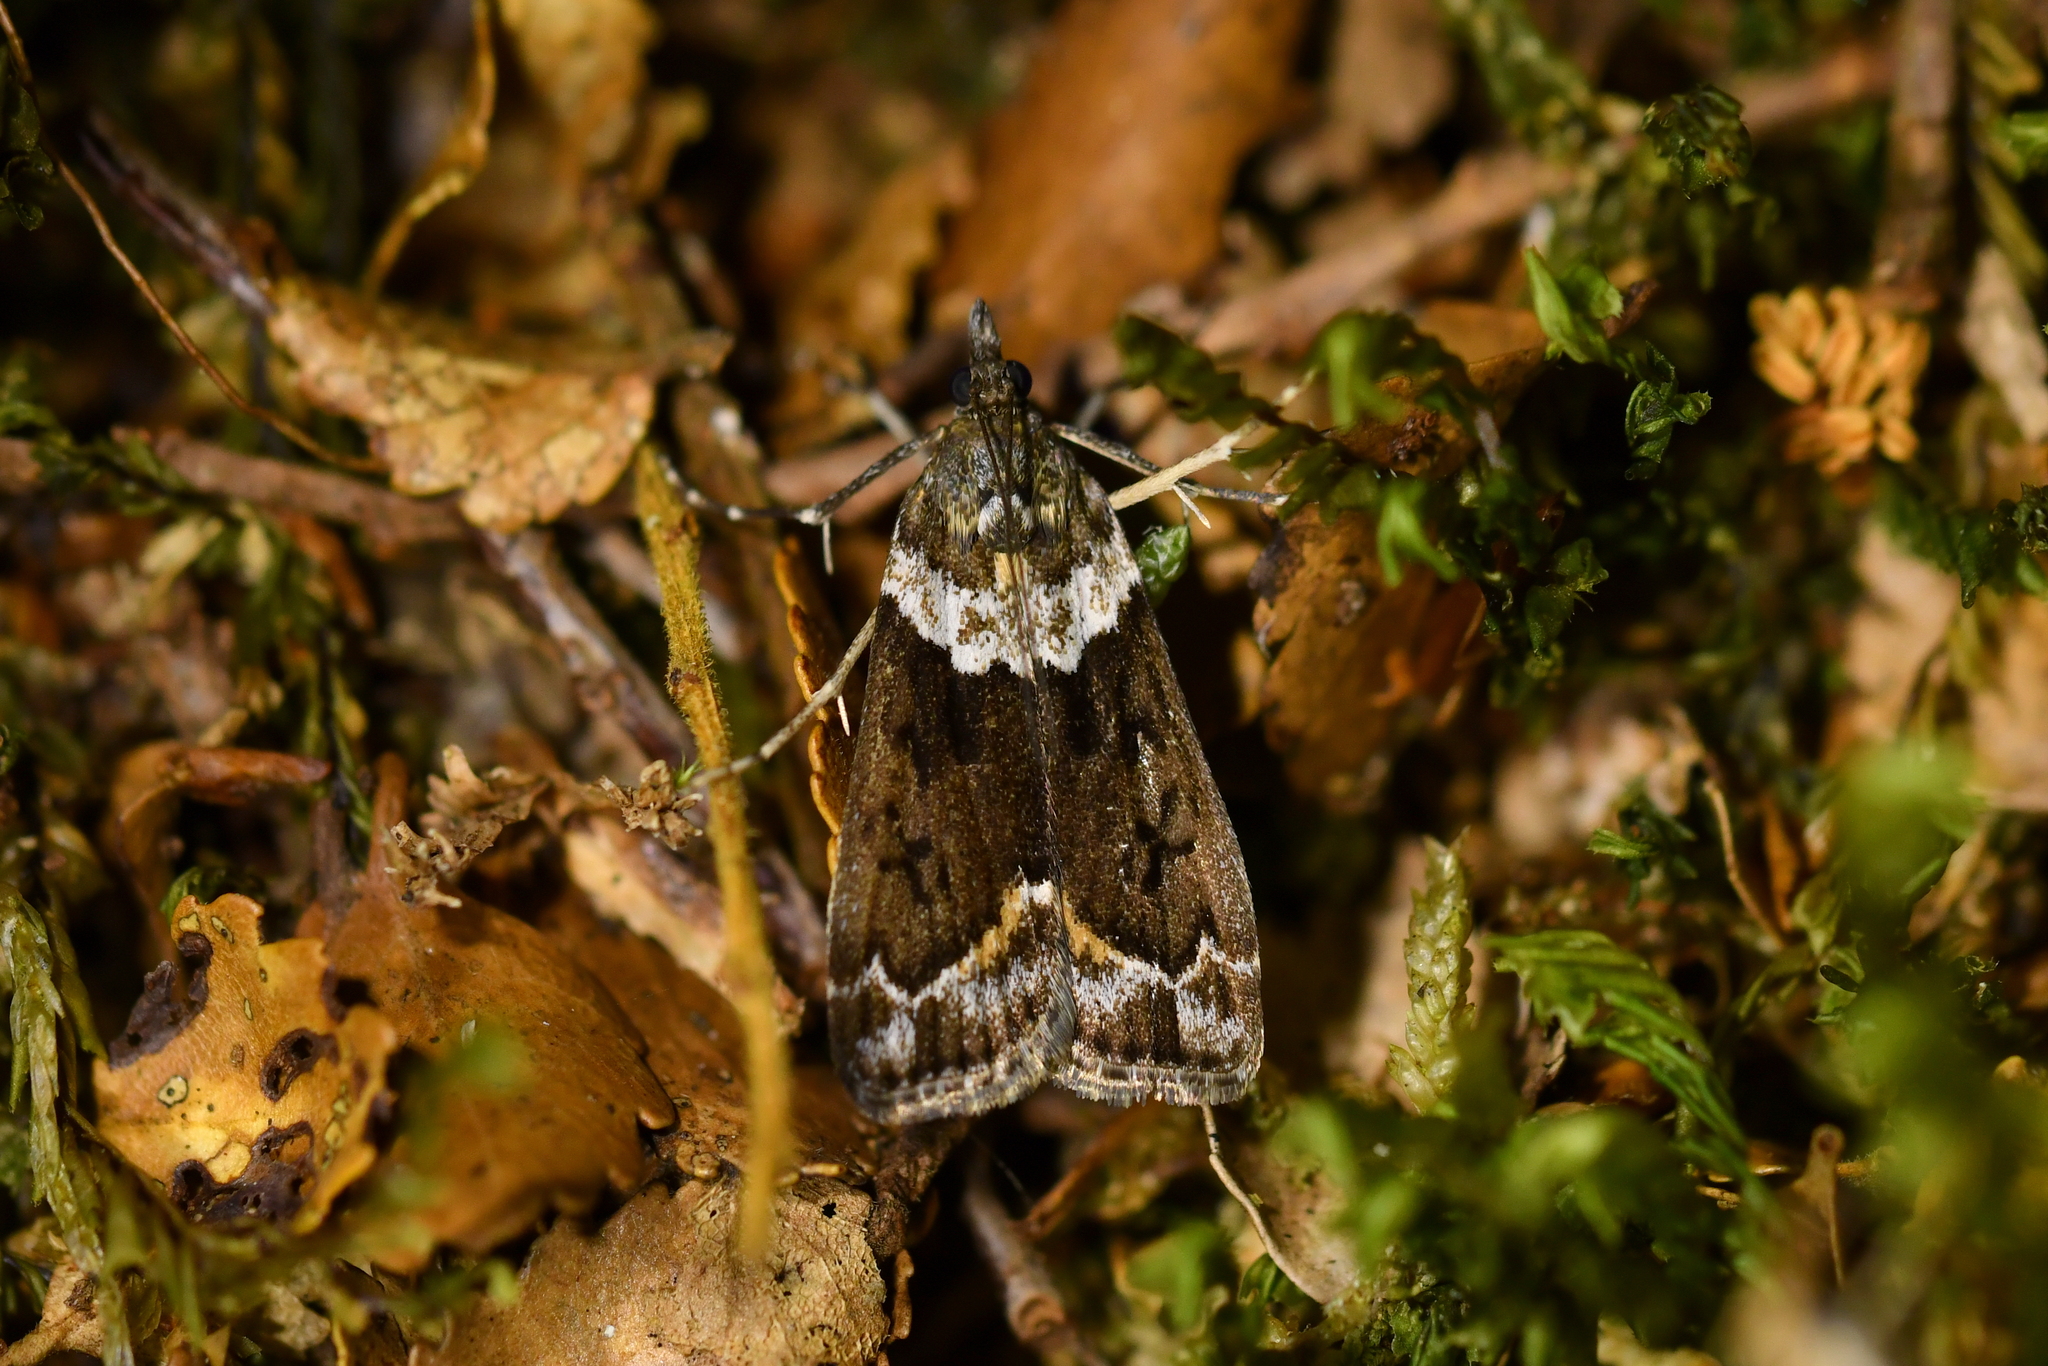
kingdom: Animalia
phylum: Arthropoda
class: Insecta
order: Lepidoptera
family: Crambidae
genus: Eudonia
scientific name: Eudonia submarginalis
